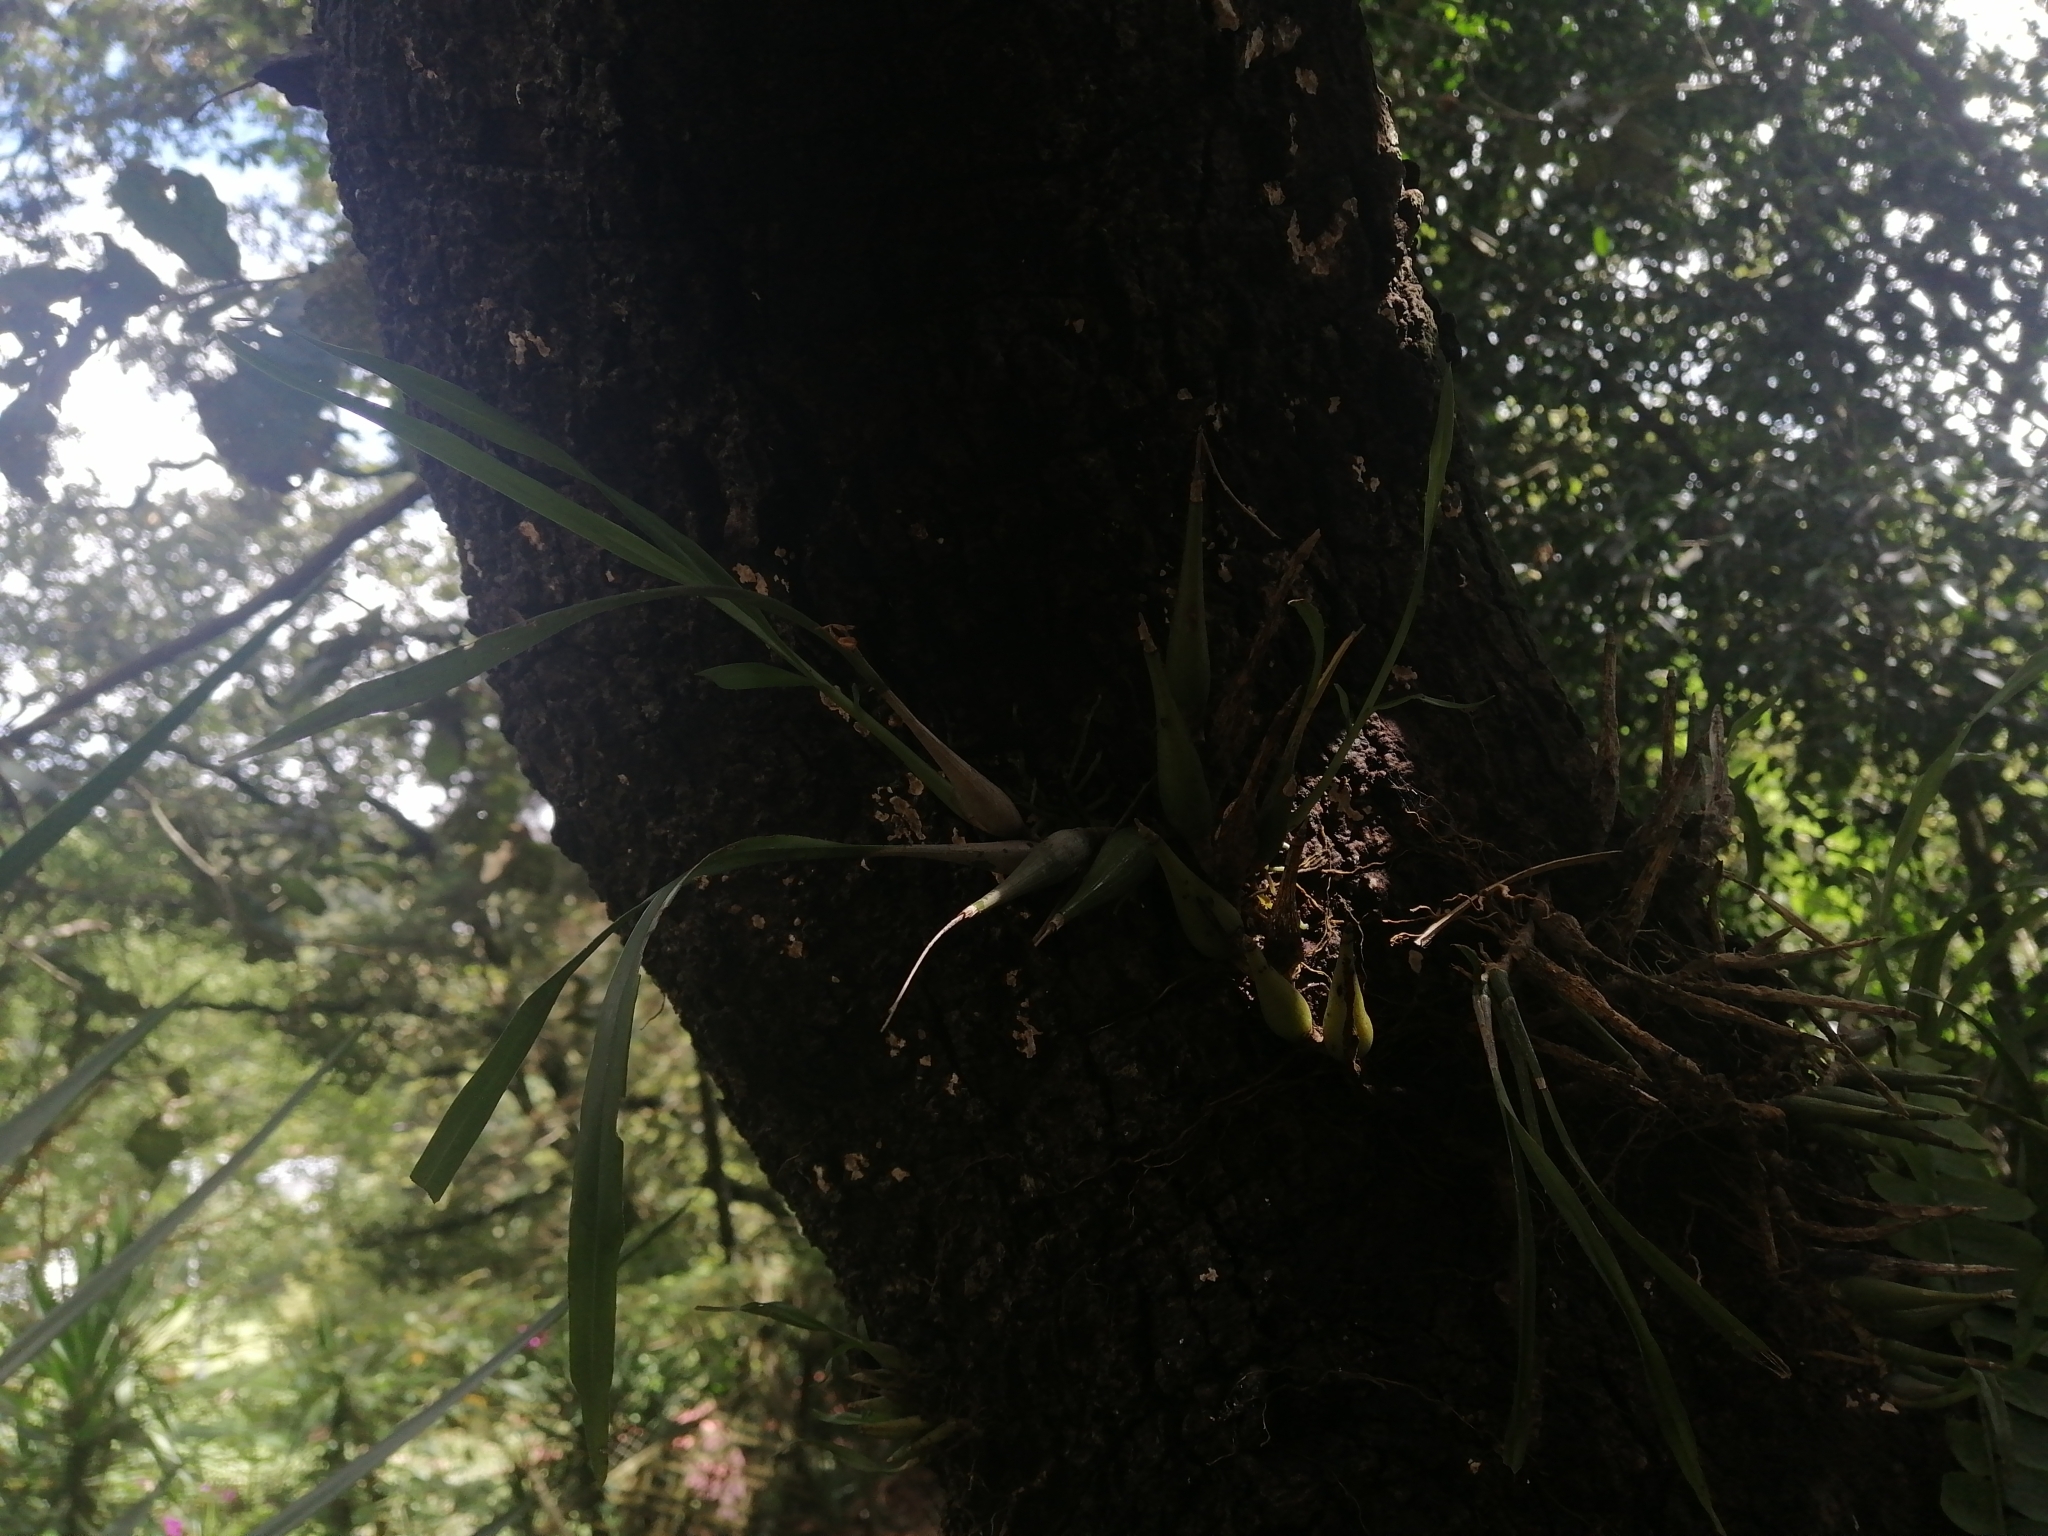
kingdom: Plantae
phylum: Tracheophyta
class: Liliopsida
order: Asparagales
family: Orchidaceae
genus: Prosthechea
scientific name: Prosthechea ochracea
